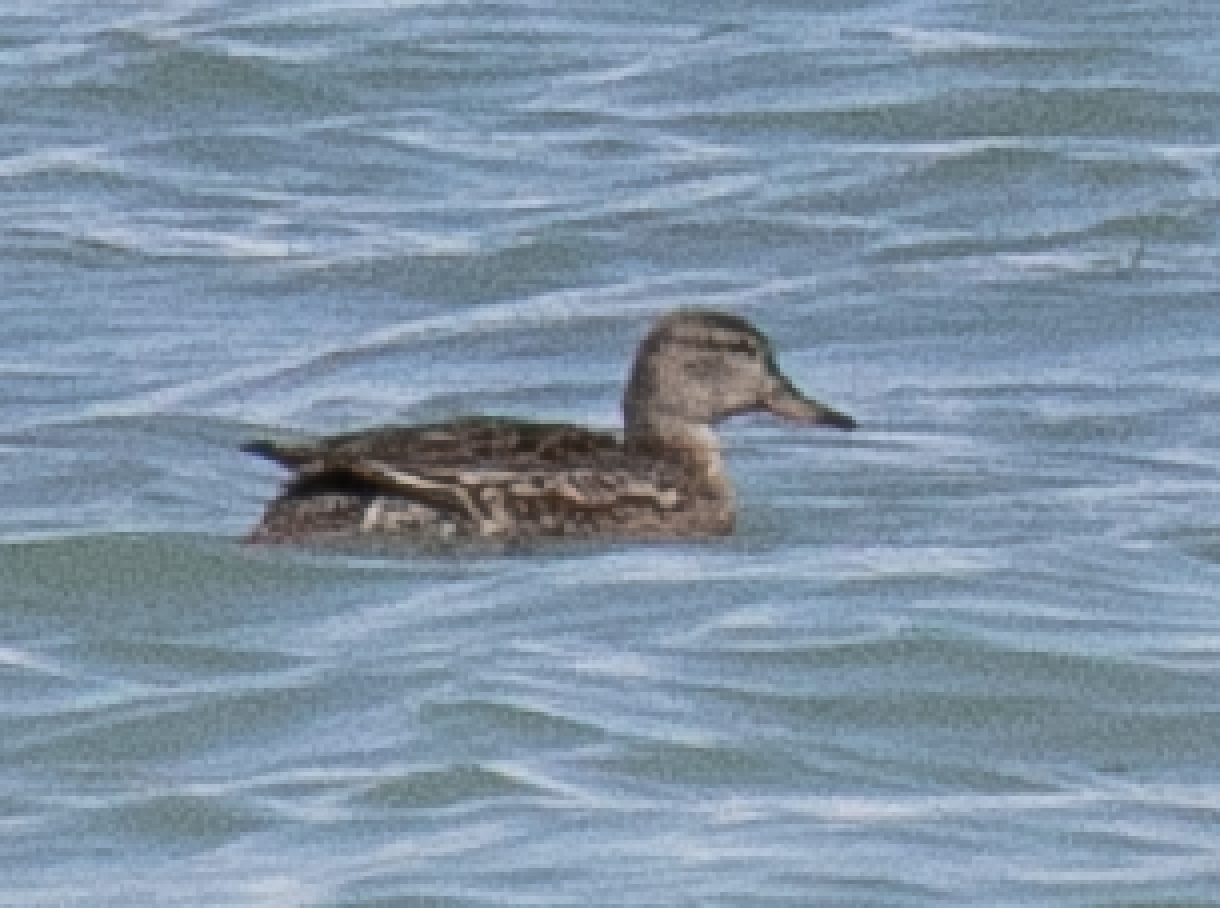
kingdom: Animalia
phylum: Chordata
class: Aves
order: Anseriformes
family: Anatidae
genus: Anas
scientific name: Anas crecca
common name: Eurasian teal
